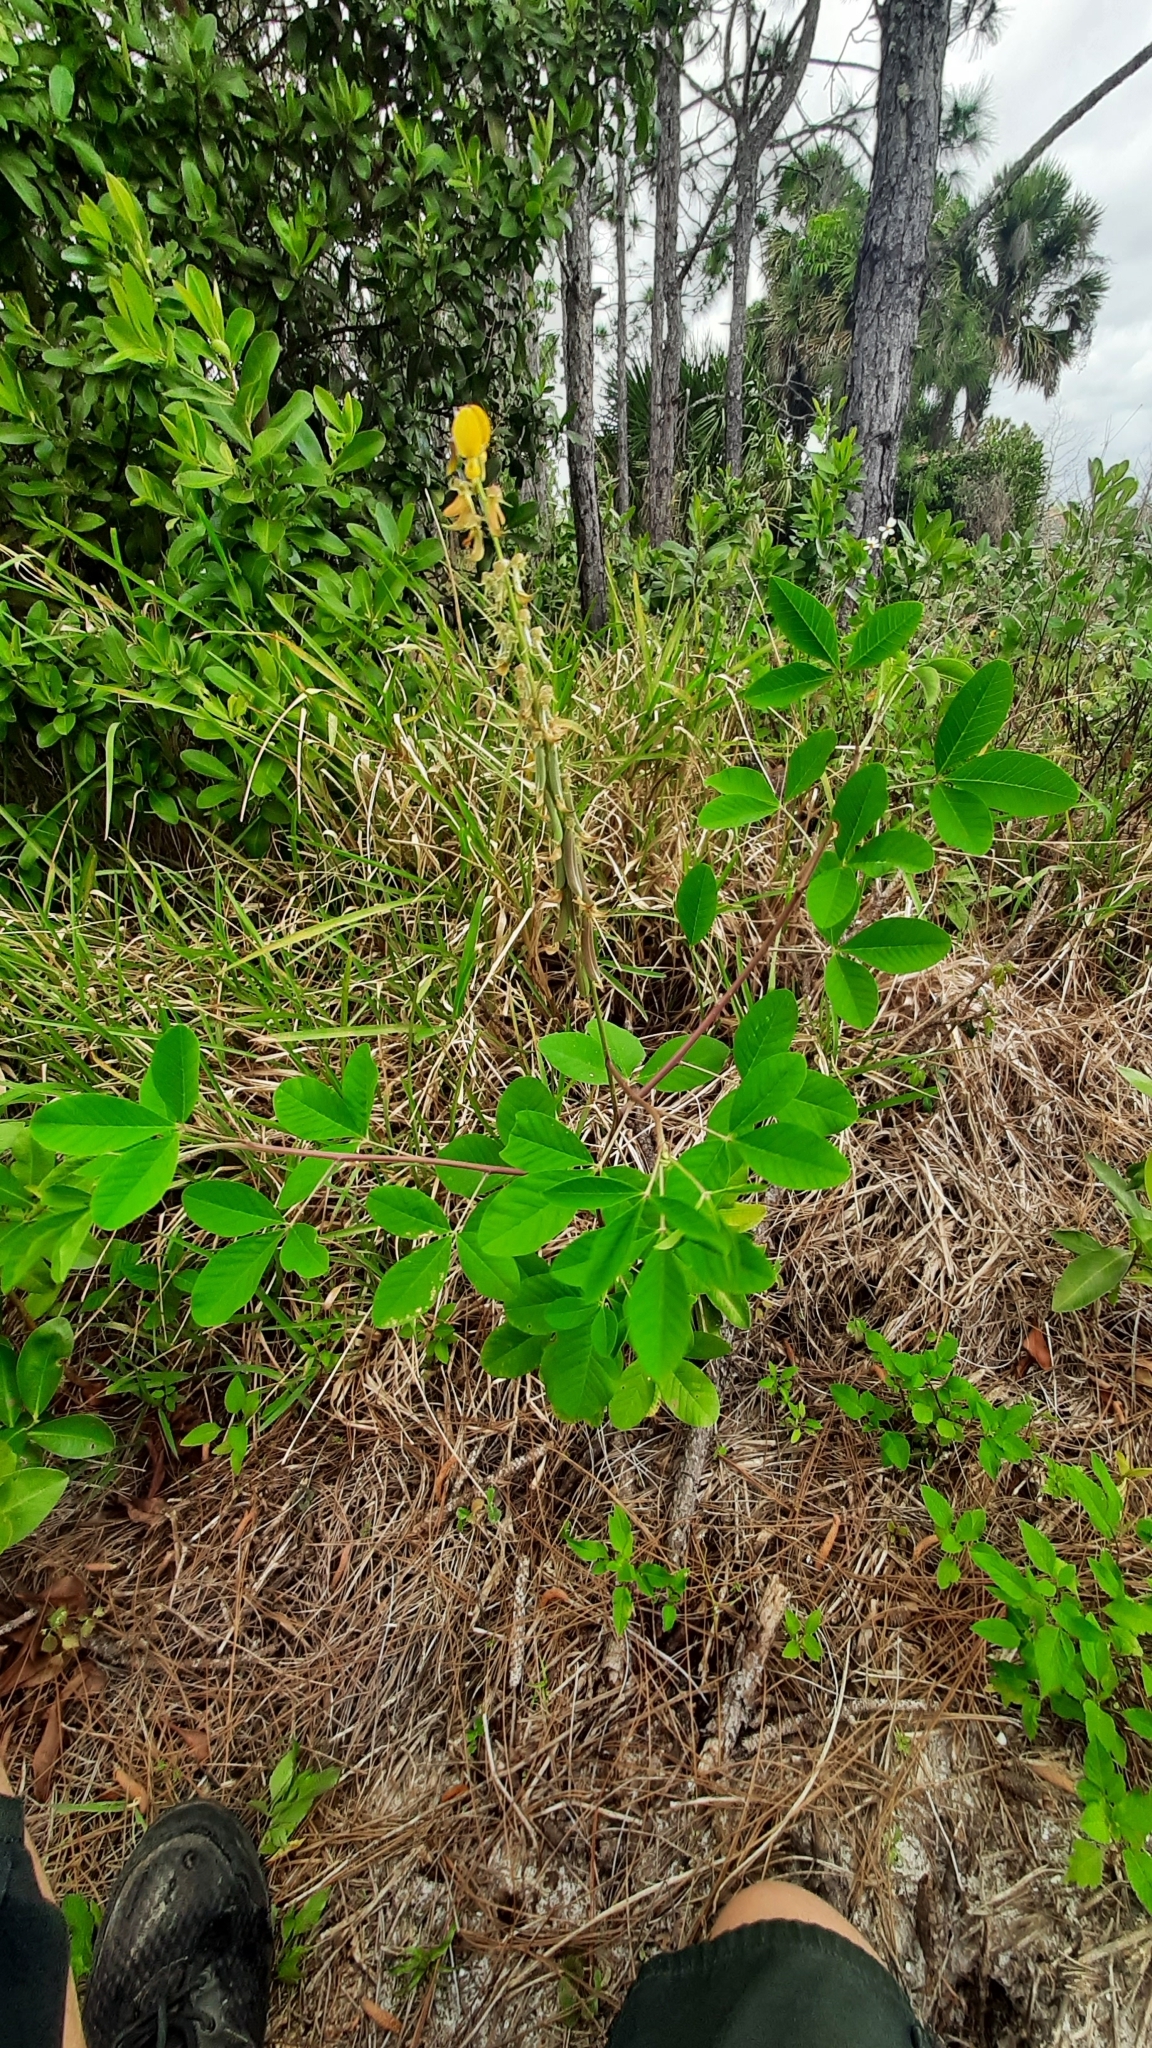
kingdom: Plantae
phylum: Tracheophyta
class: Magnoliopsida
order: Fabales
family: Fabaceae
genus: Crotalaria
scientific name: Crotalaria pallida
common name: Smooth rattlebox
